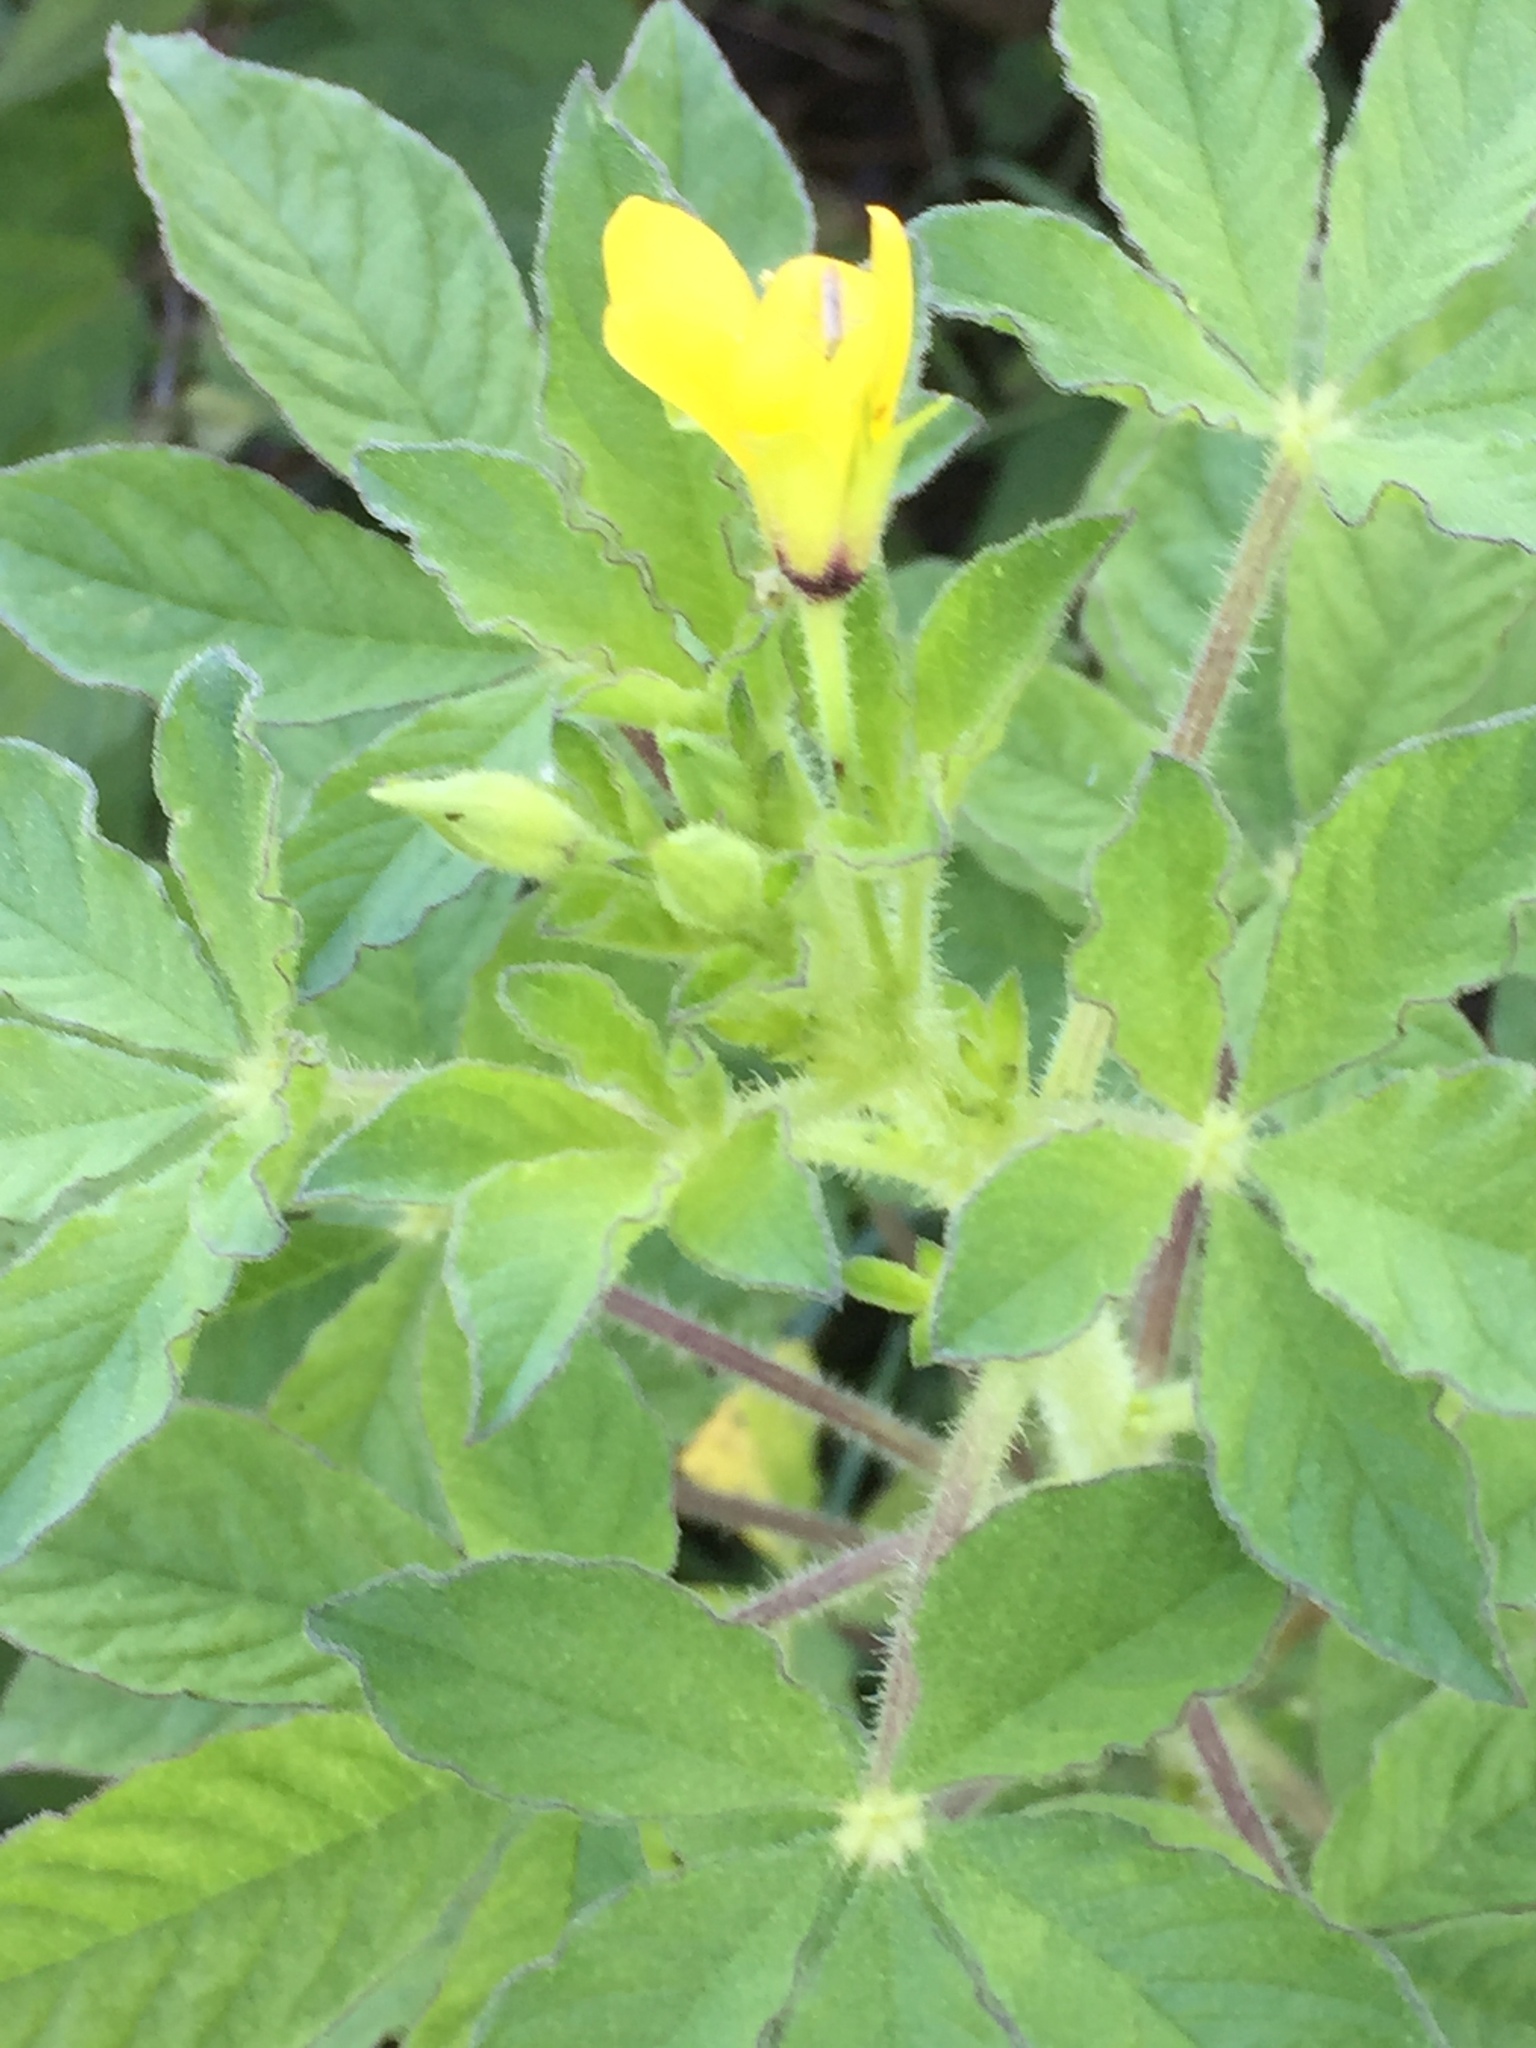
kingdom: Plantae
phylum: Tracheophyta
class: Magnoliopsida
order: Brassicales
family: Cleomaceae
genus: Arivela
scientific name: Arivela viscosa
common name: Asian spiderflower
